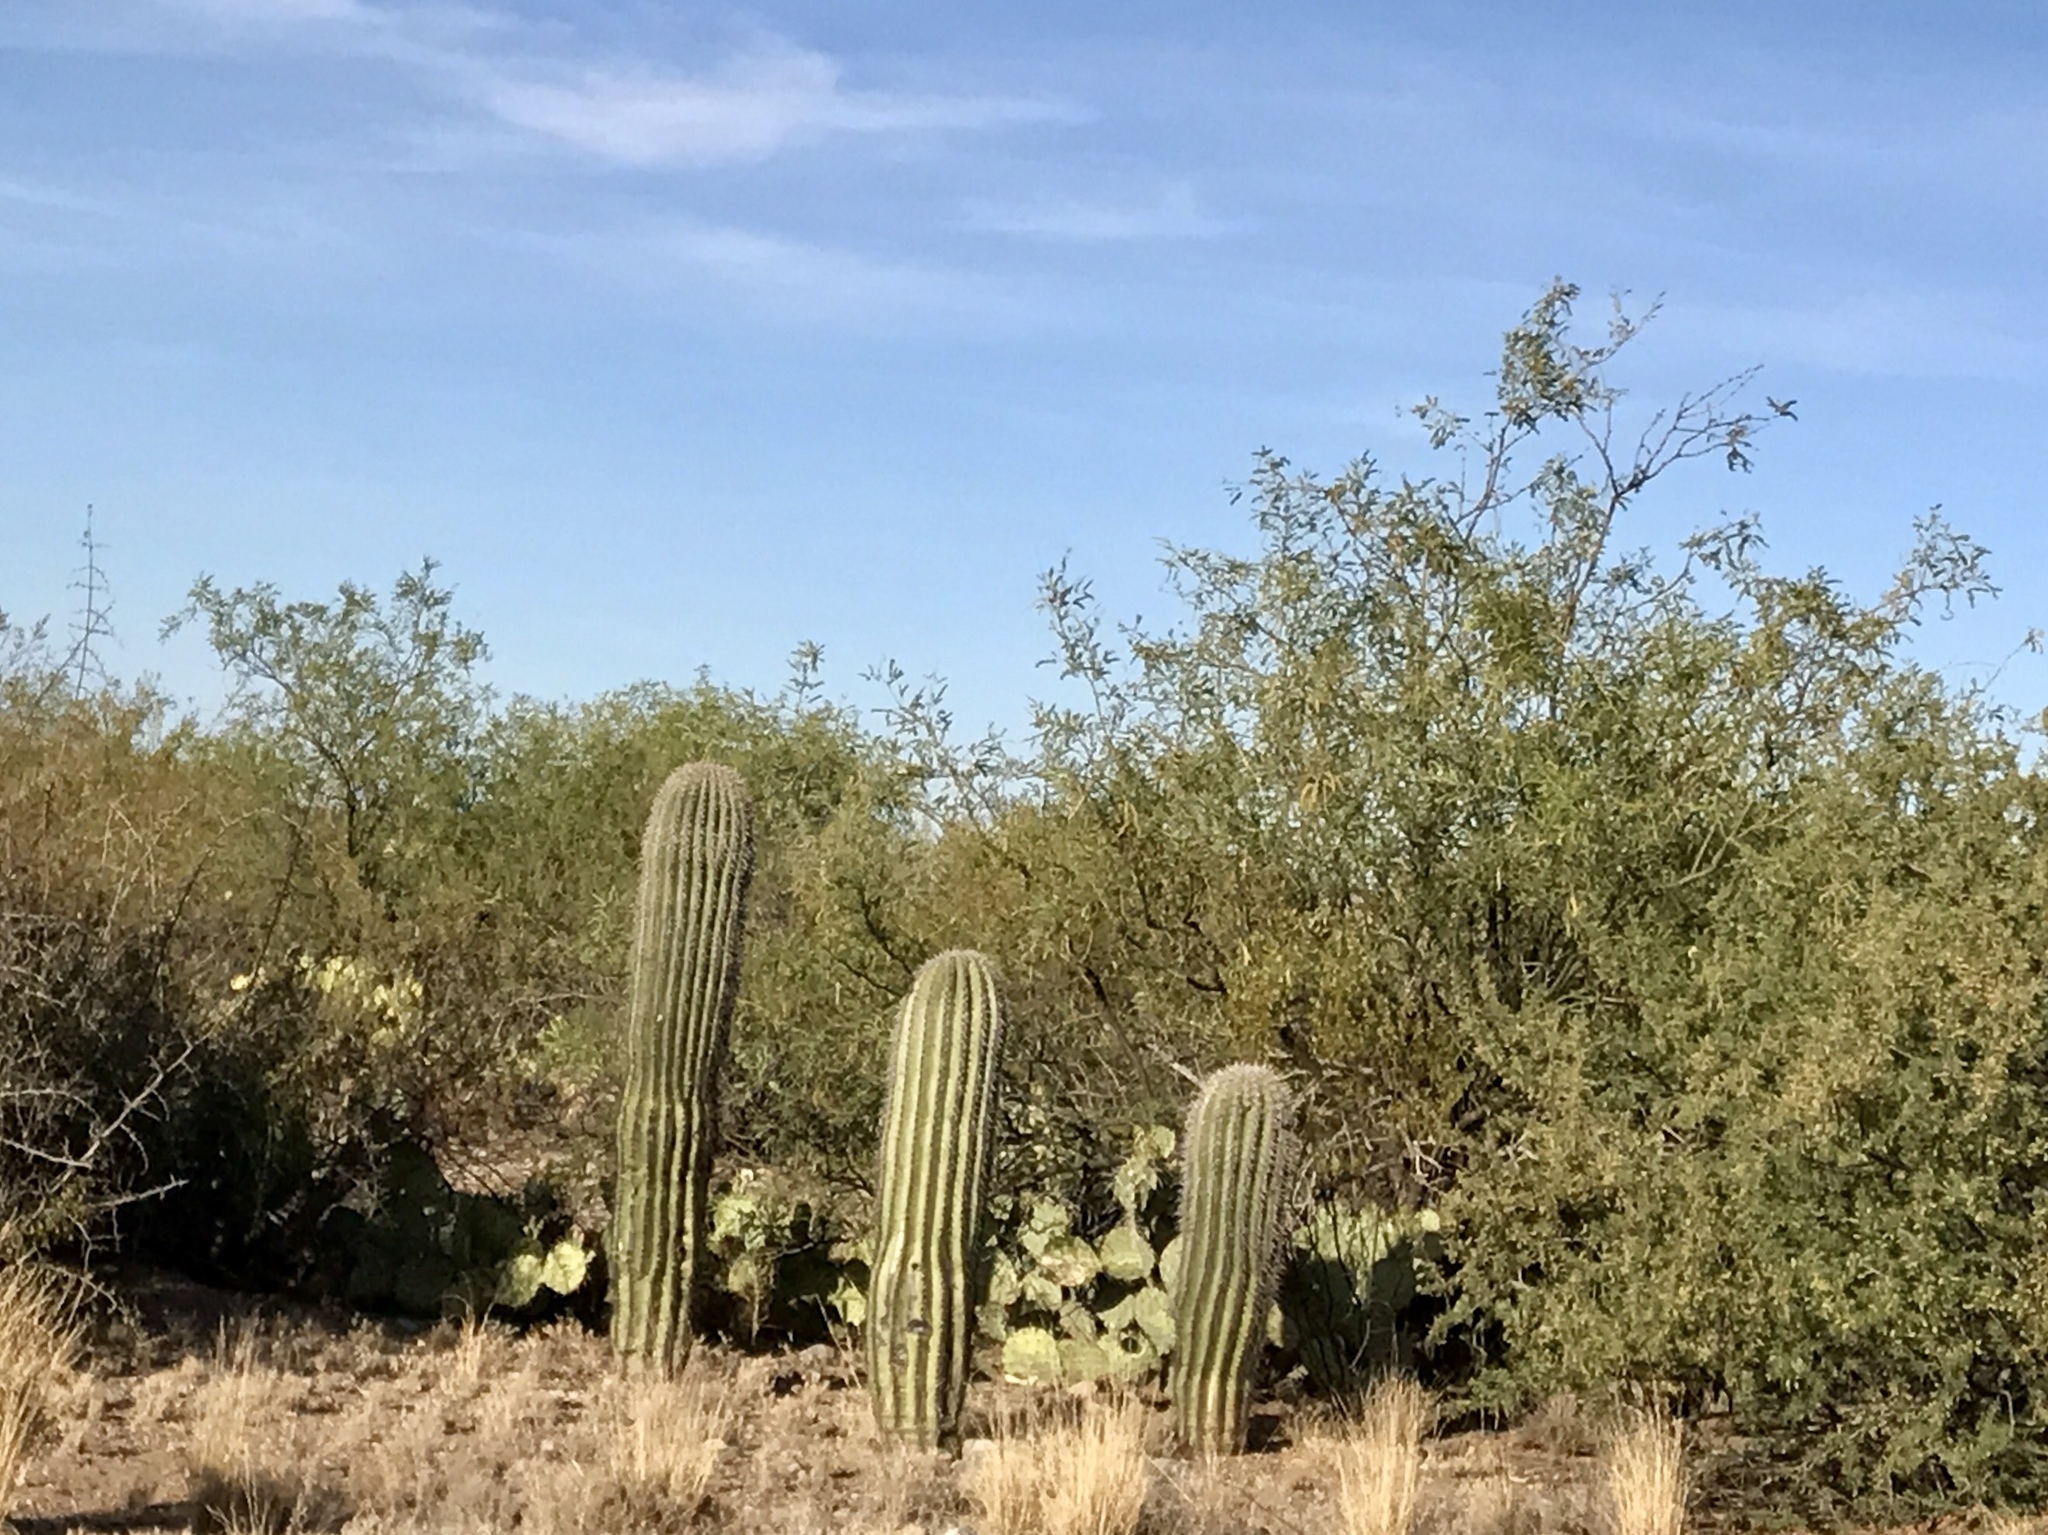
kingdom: Plantae
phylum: Tracheophyta
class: Magnoliopsida
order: Caryophyllales
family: Cactaceae
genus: Carnegiea
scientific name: Carnegiea gigantea
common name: Saguaro
